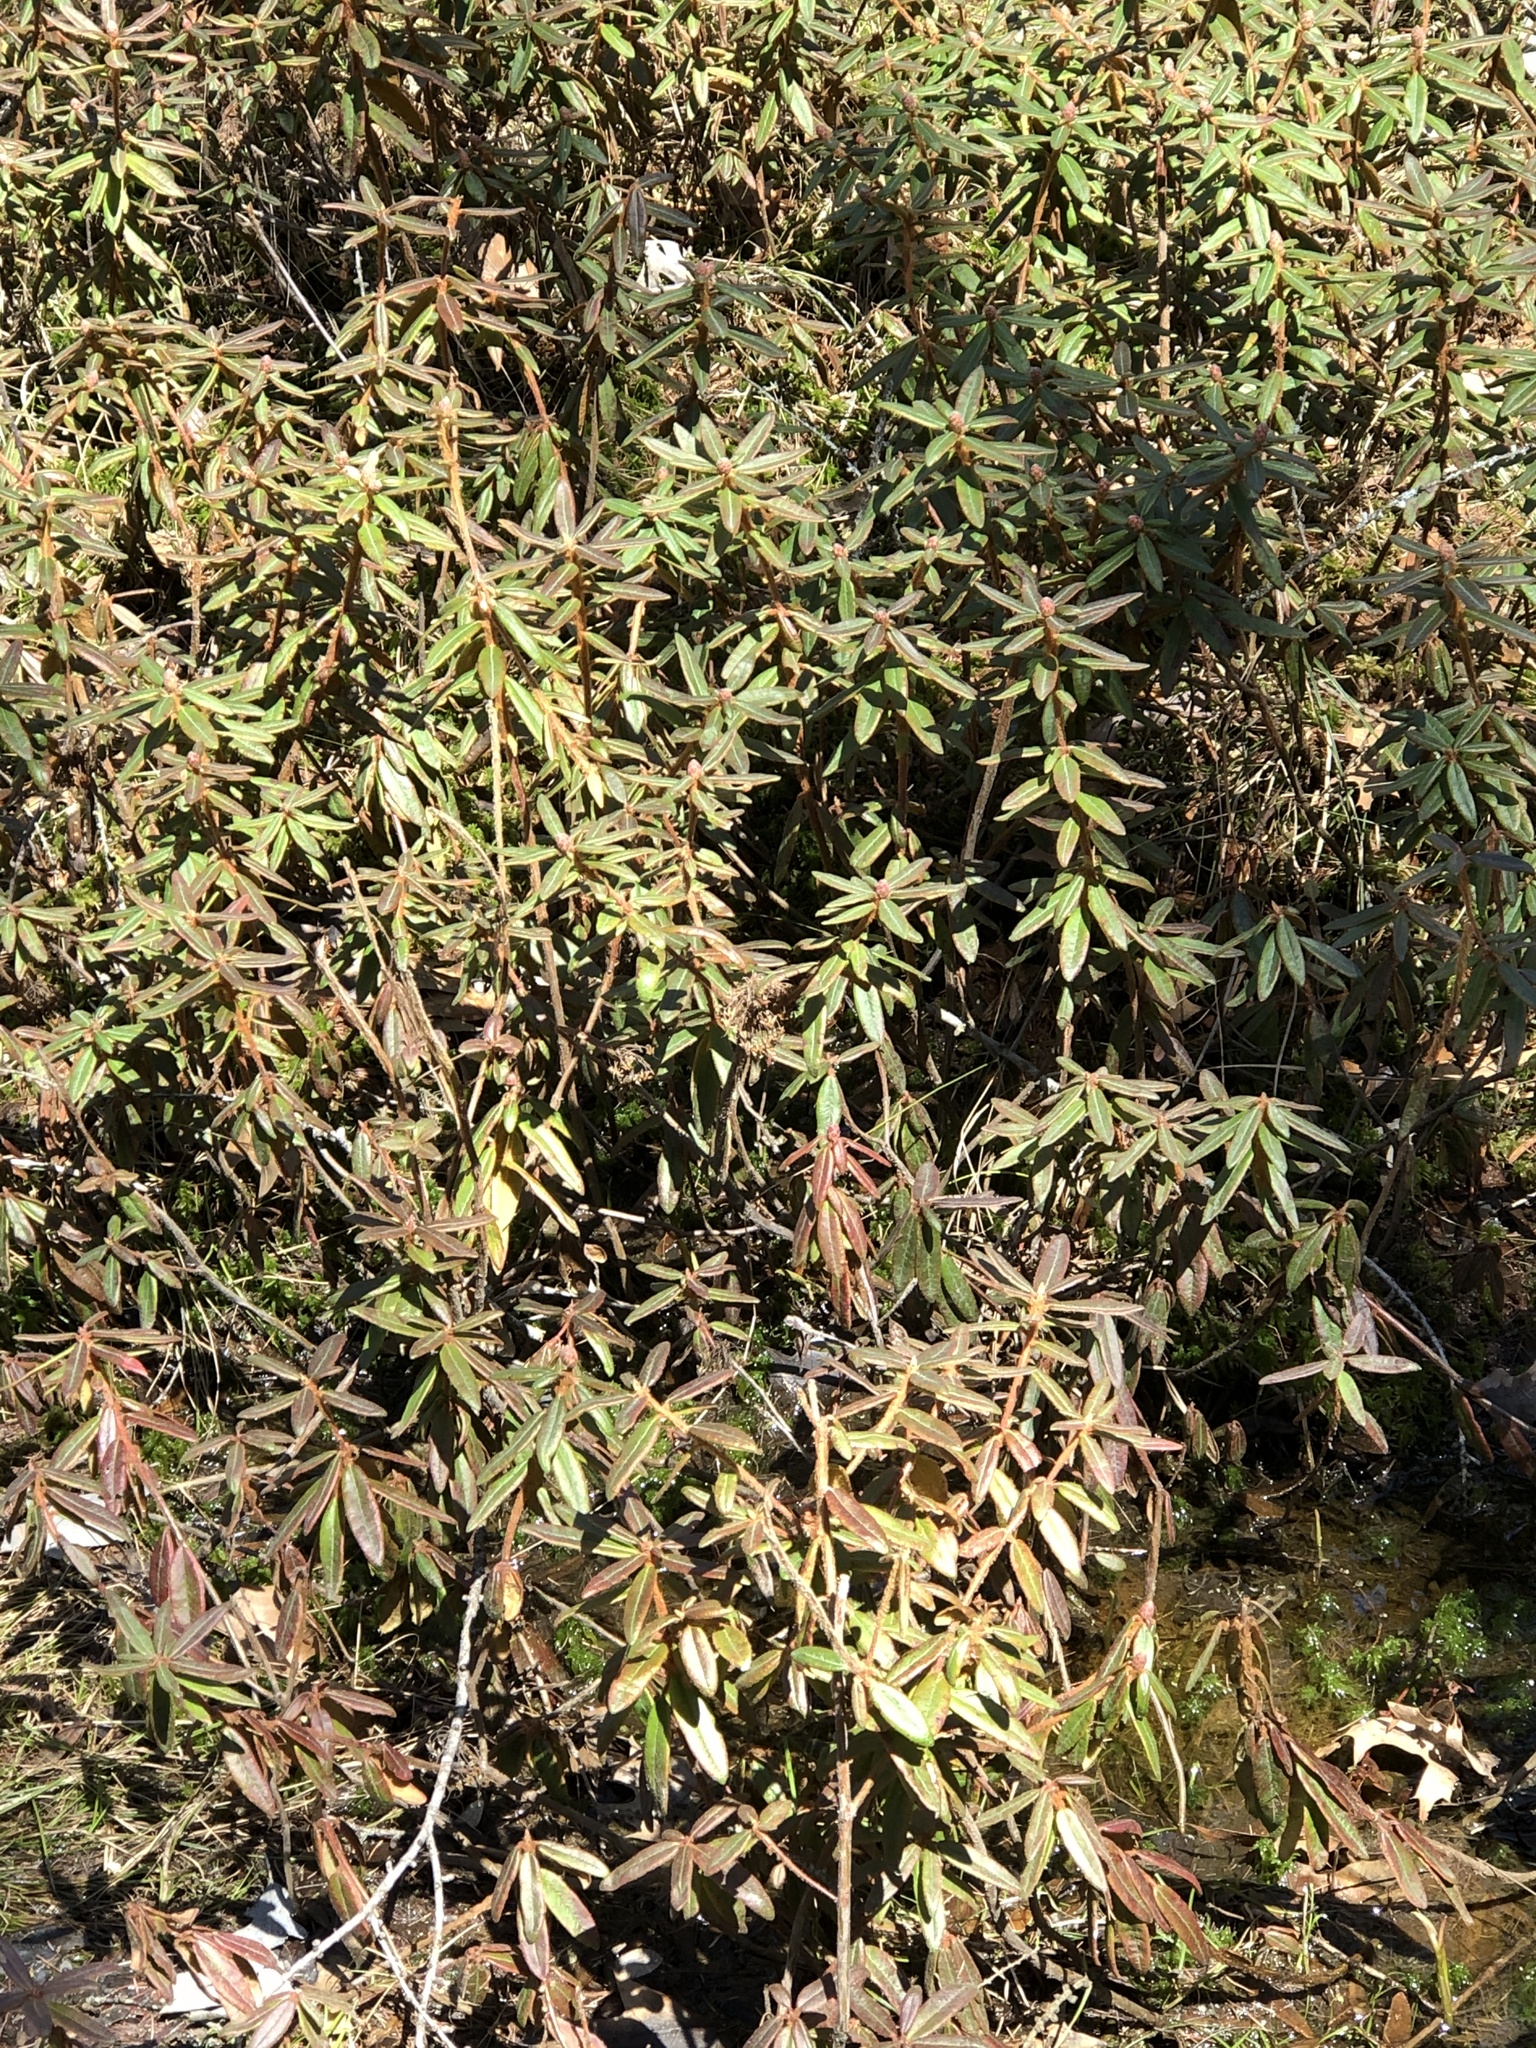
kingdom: Plantae
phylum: Tracheophyta
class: Magnoliopsida
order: Ericales
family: Ericaceae
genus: Rhododendron
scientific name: Rhododendron groenlandicum
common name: Bog labrador tea
